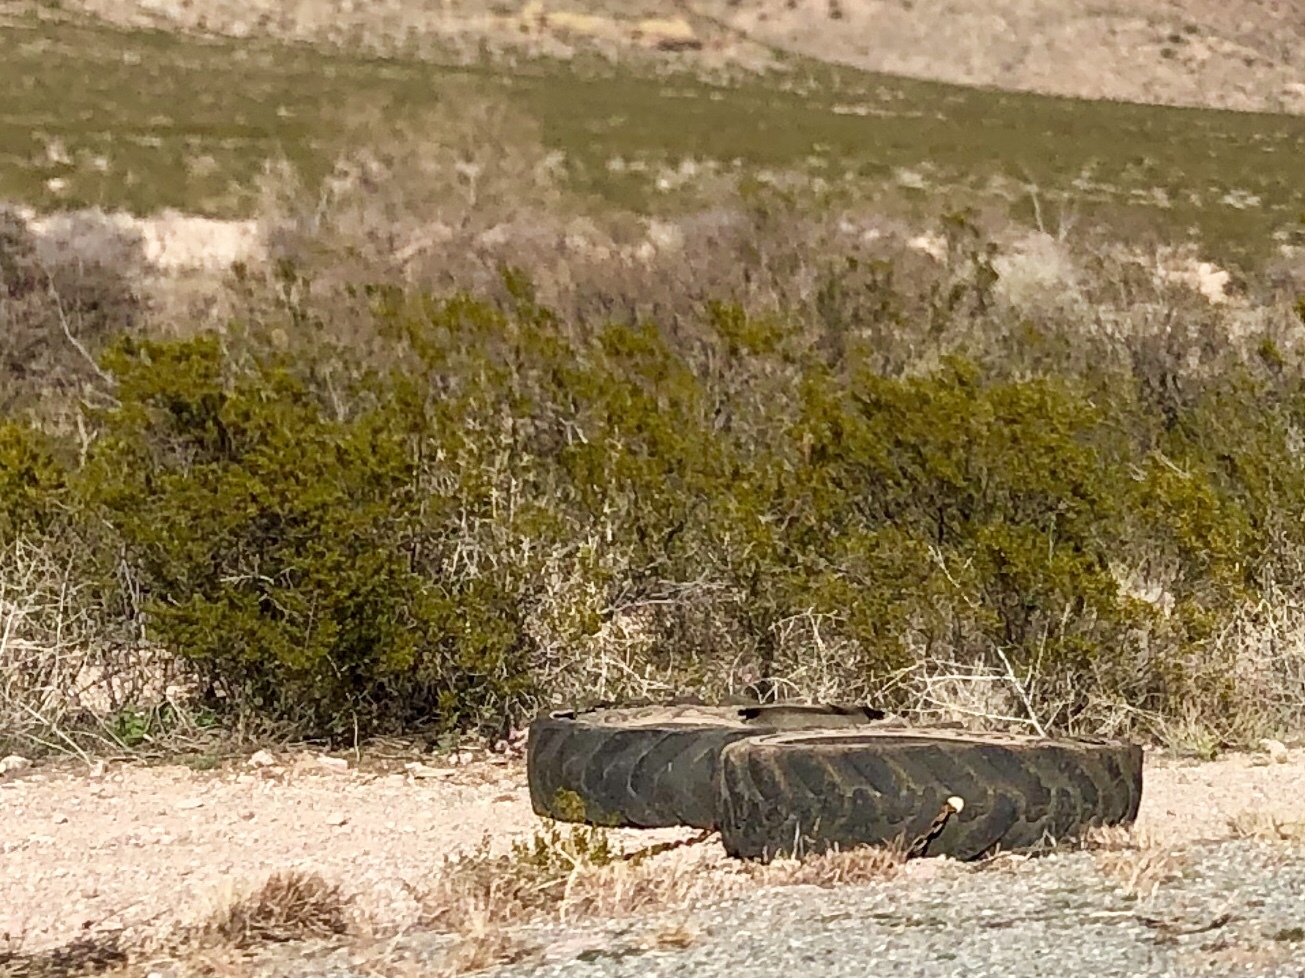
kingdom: Plantae
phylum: Tracheophyta
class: Magnoliopsida
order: Zygophyllales
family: Zygophyllaceae
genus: Larrea
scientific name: Larrea tridentata
